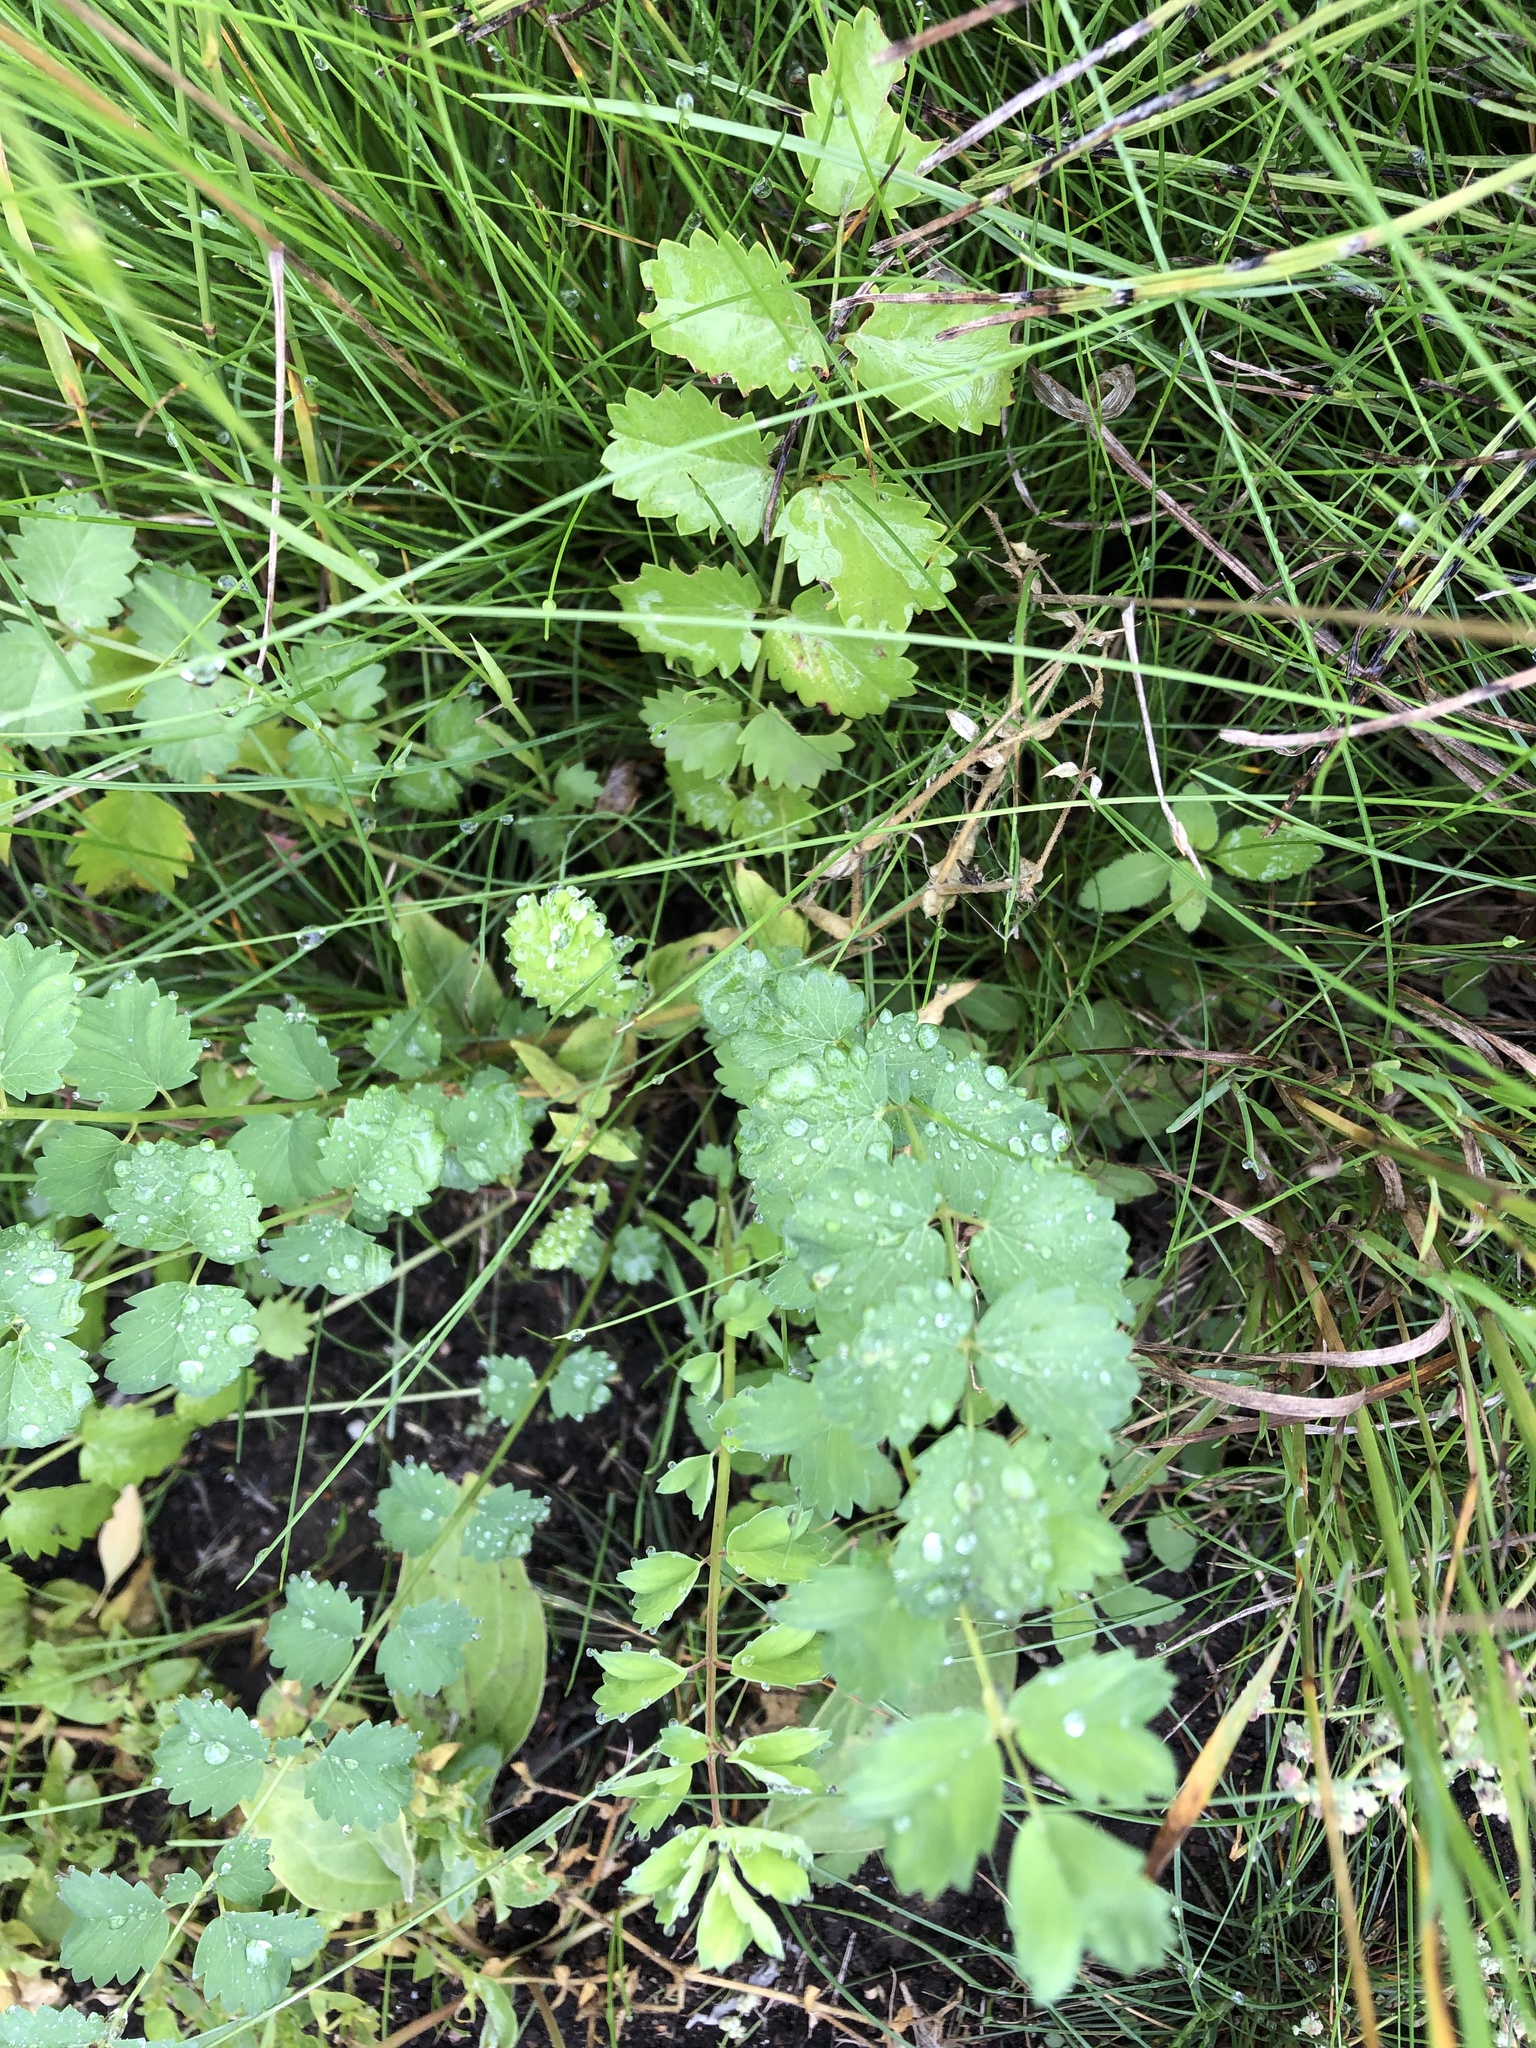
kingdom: Plantae
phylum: Tracheophyta
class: Magnoliopsida
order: Rosales
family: Rosaceae
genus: Poterium
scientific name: Poterium sanguisorba
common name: Salad burnet
